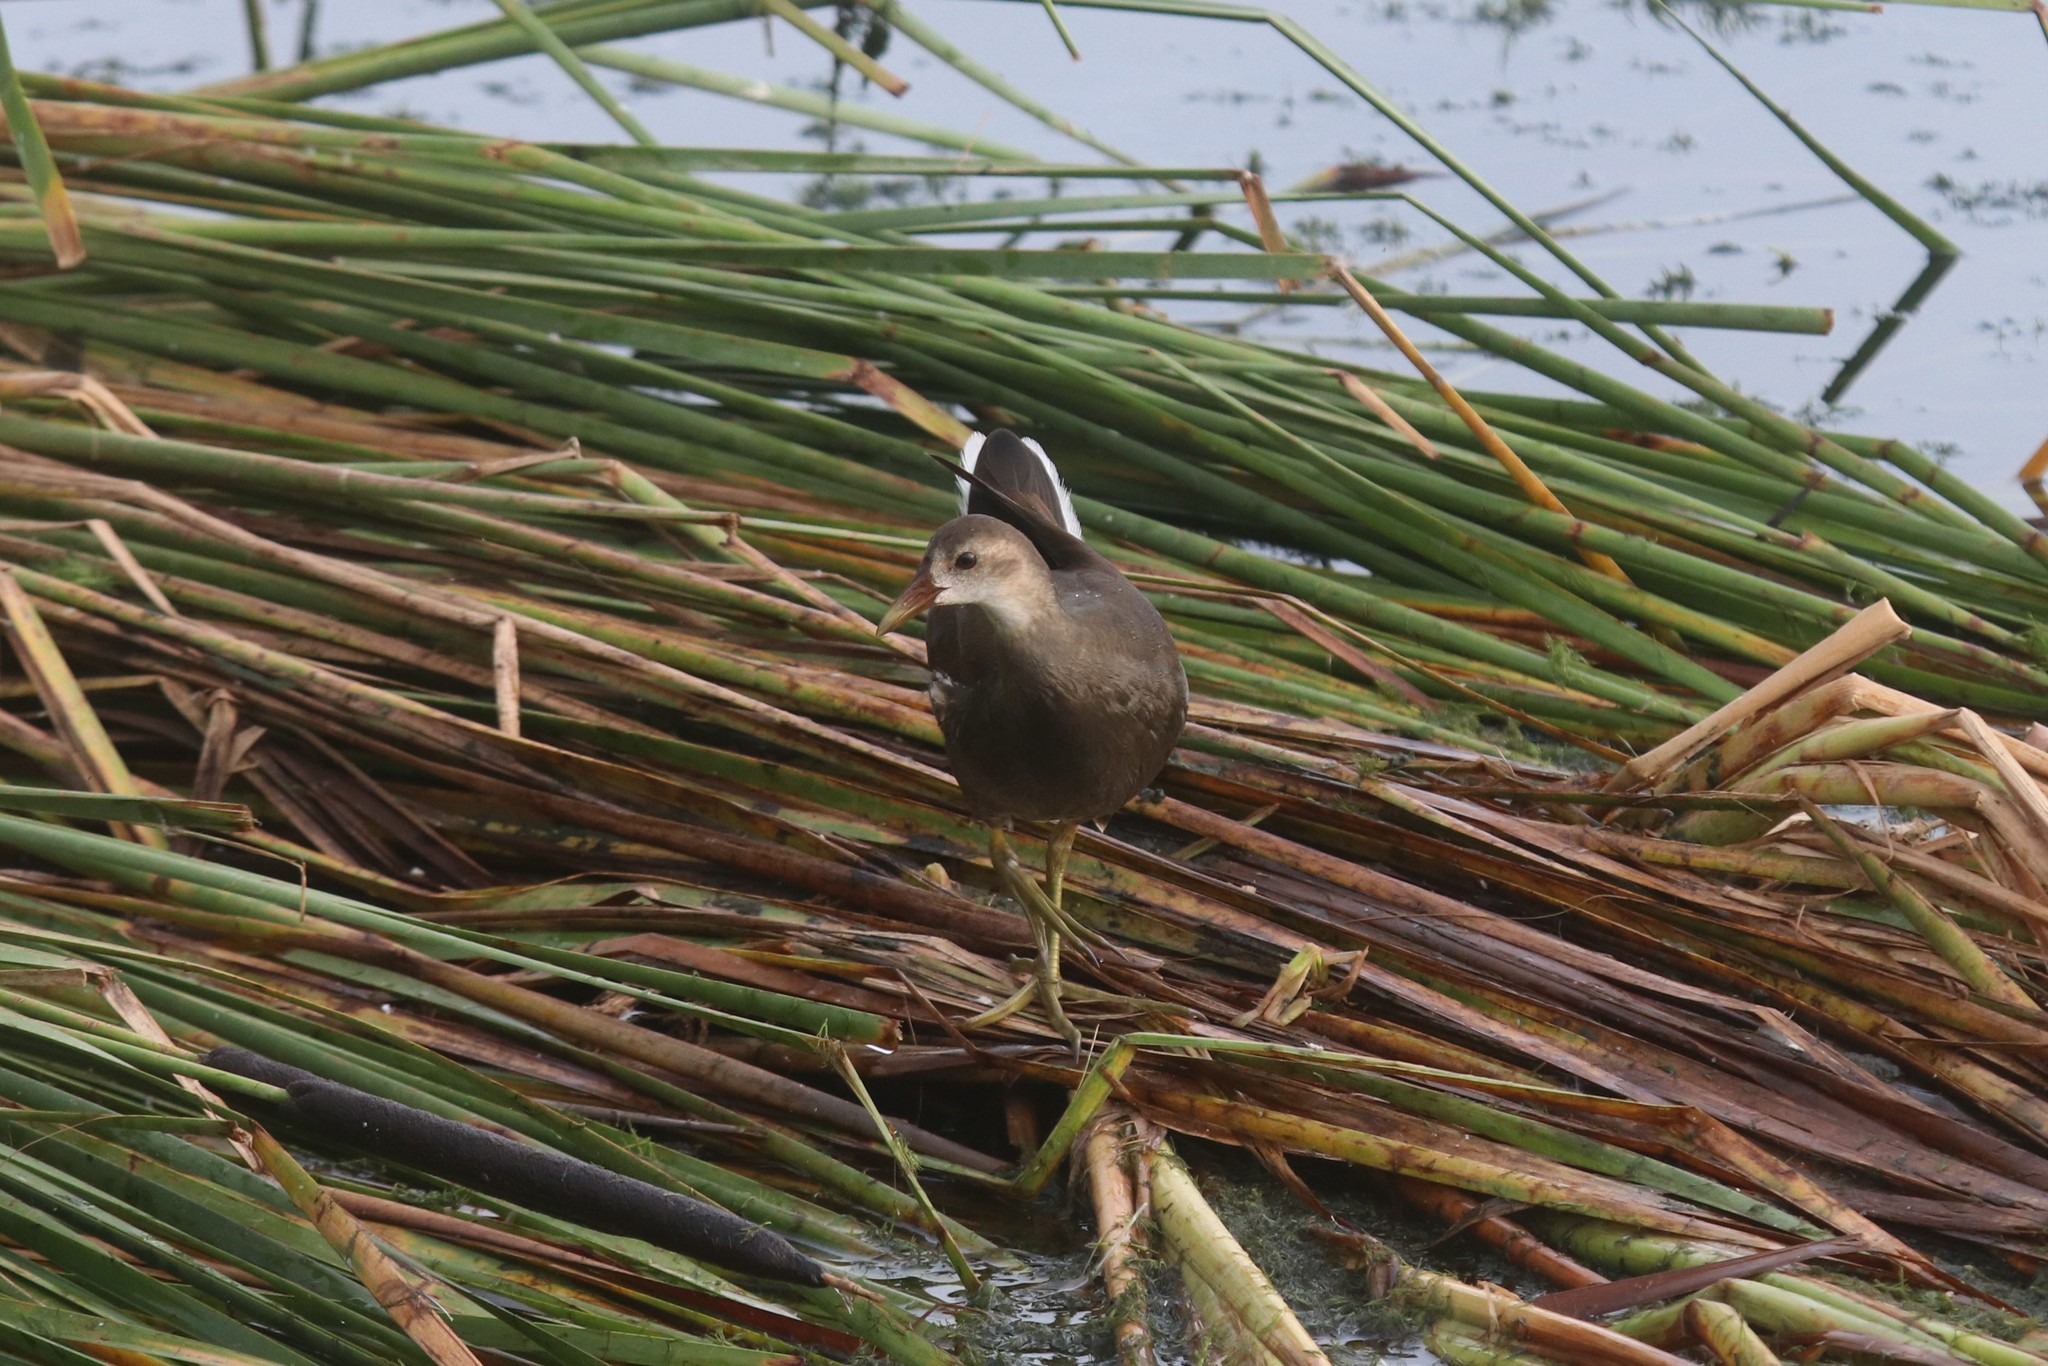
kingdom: Animalia
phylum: Chordata
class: Aves
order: Gruiformes
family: Rallidae
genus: Gallinula
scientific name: Gallinula chloropus
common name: Common moorhen
